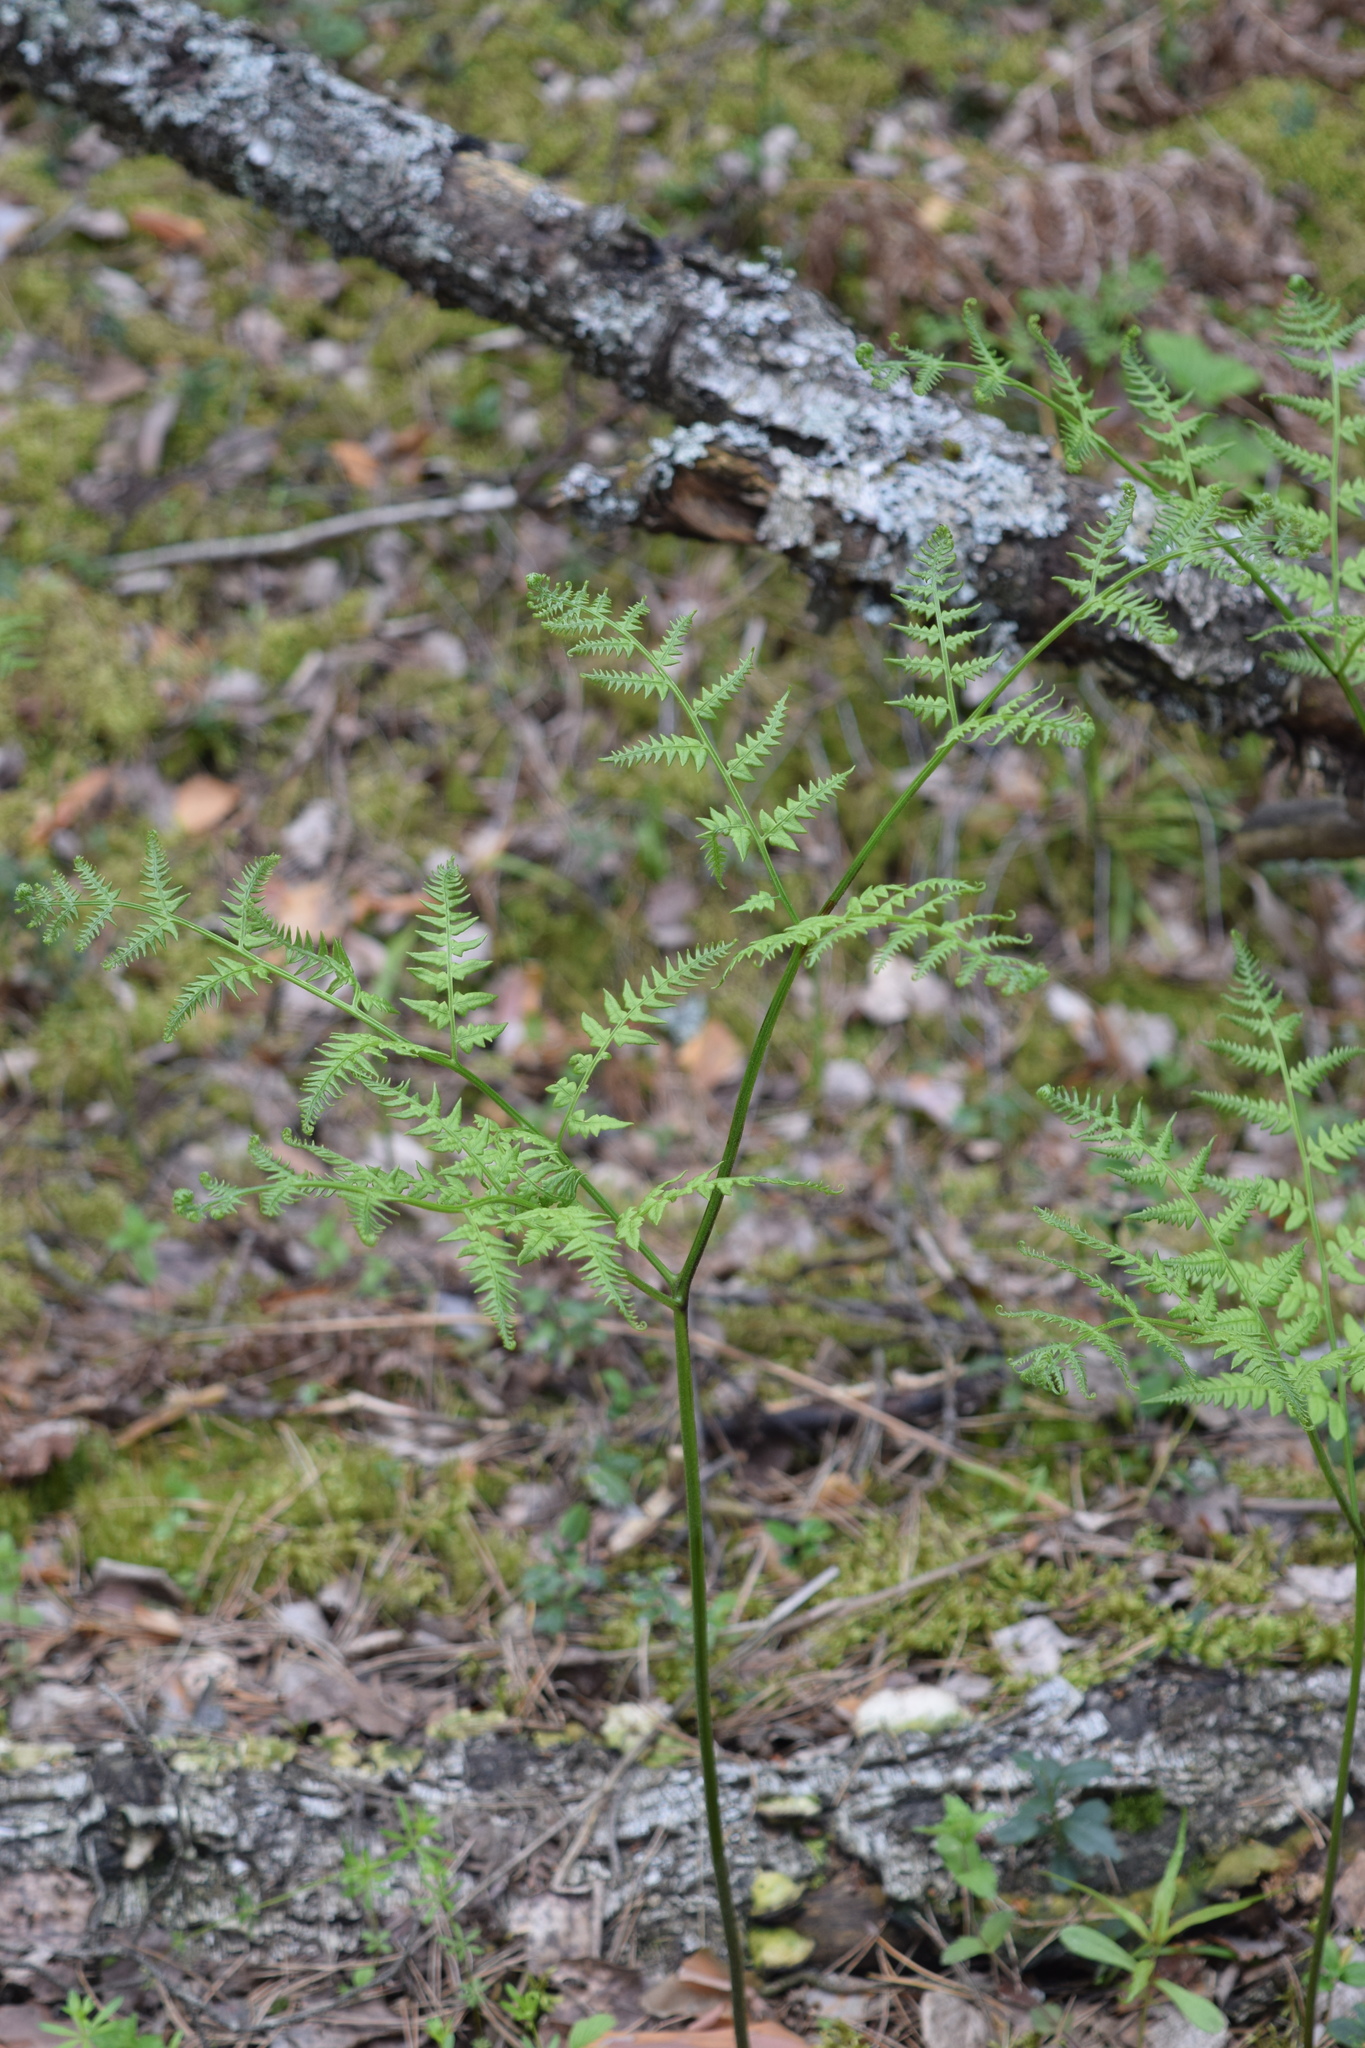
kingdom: Plantae
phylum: Tracheophyta
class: Polypodiopsida
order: Polypodiales
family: Dennstaedtiaceae
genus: Pteridium
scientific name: Pteridium aquilinum
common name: Bracken
